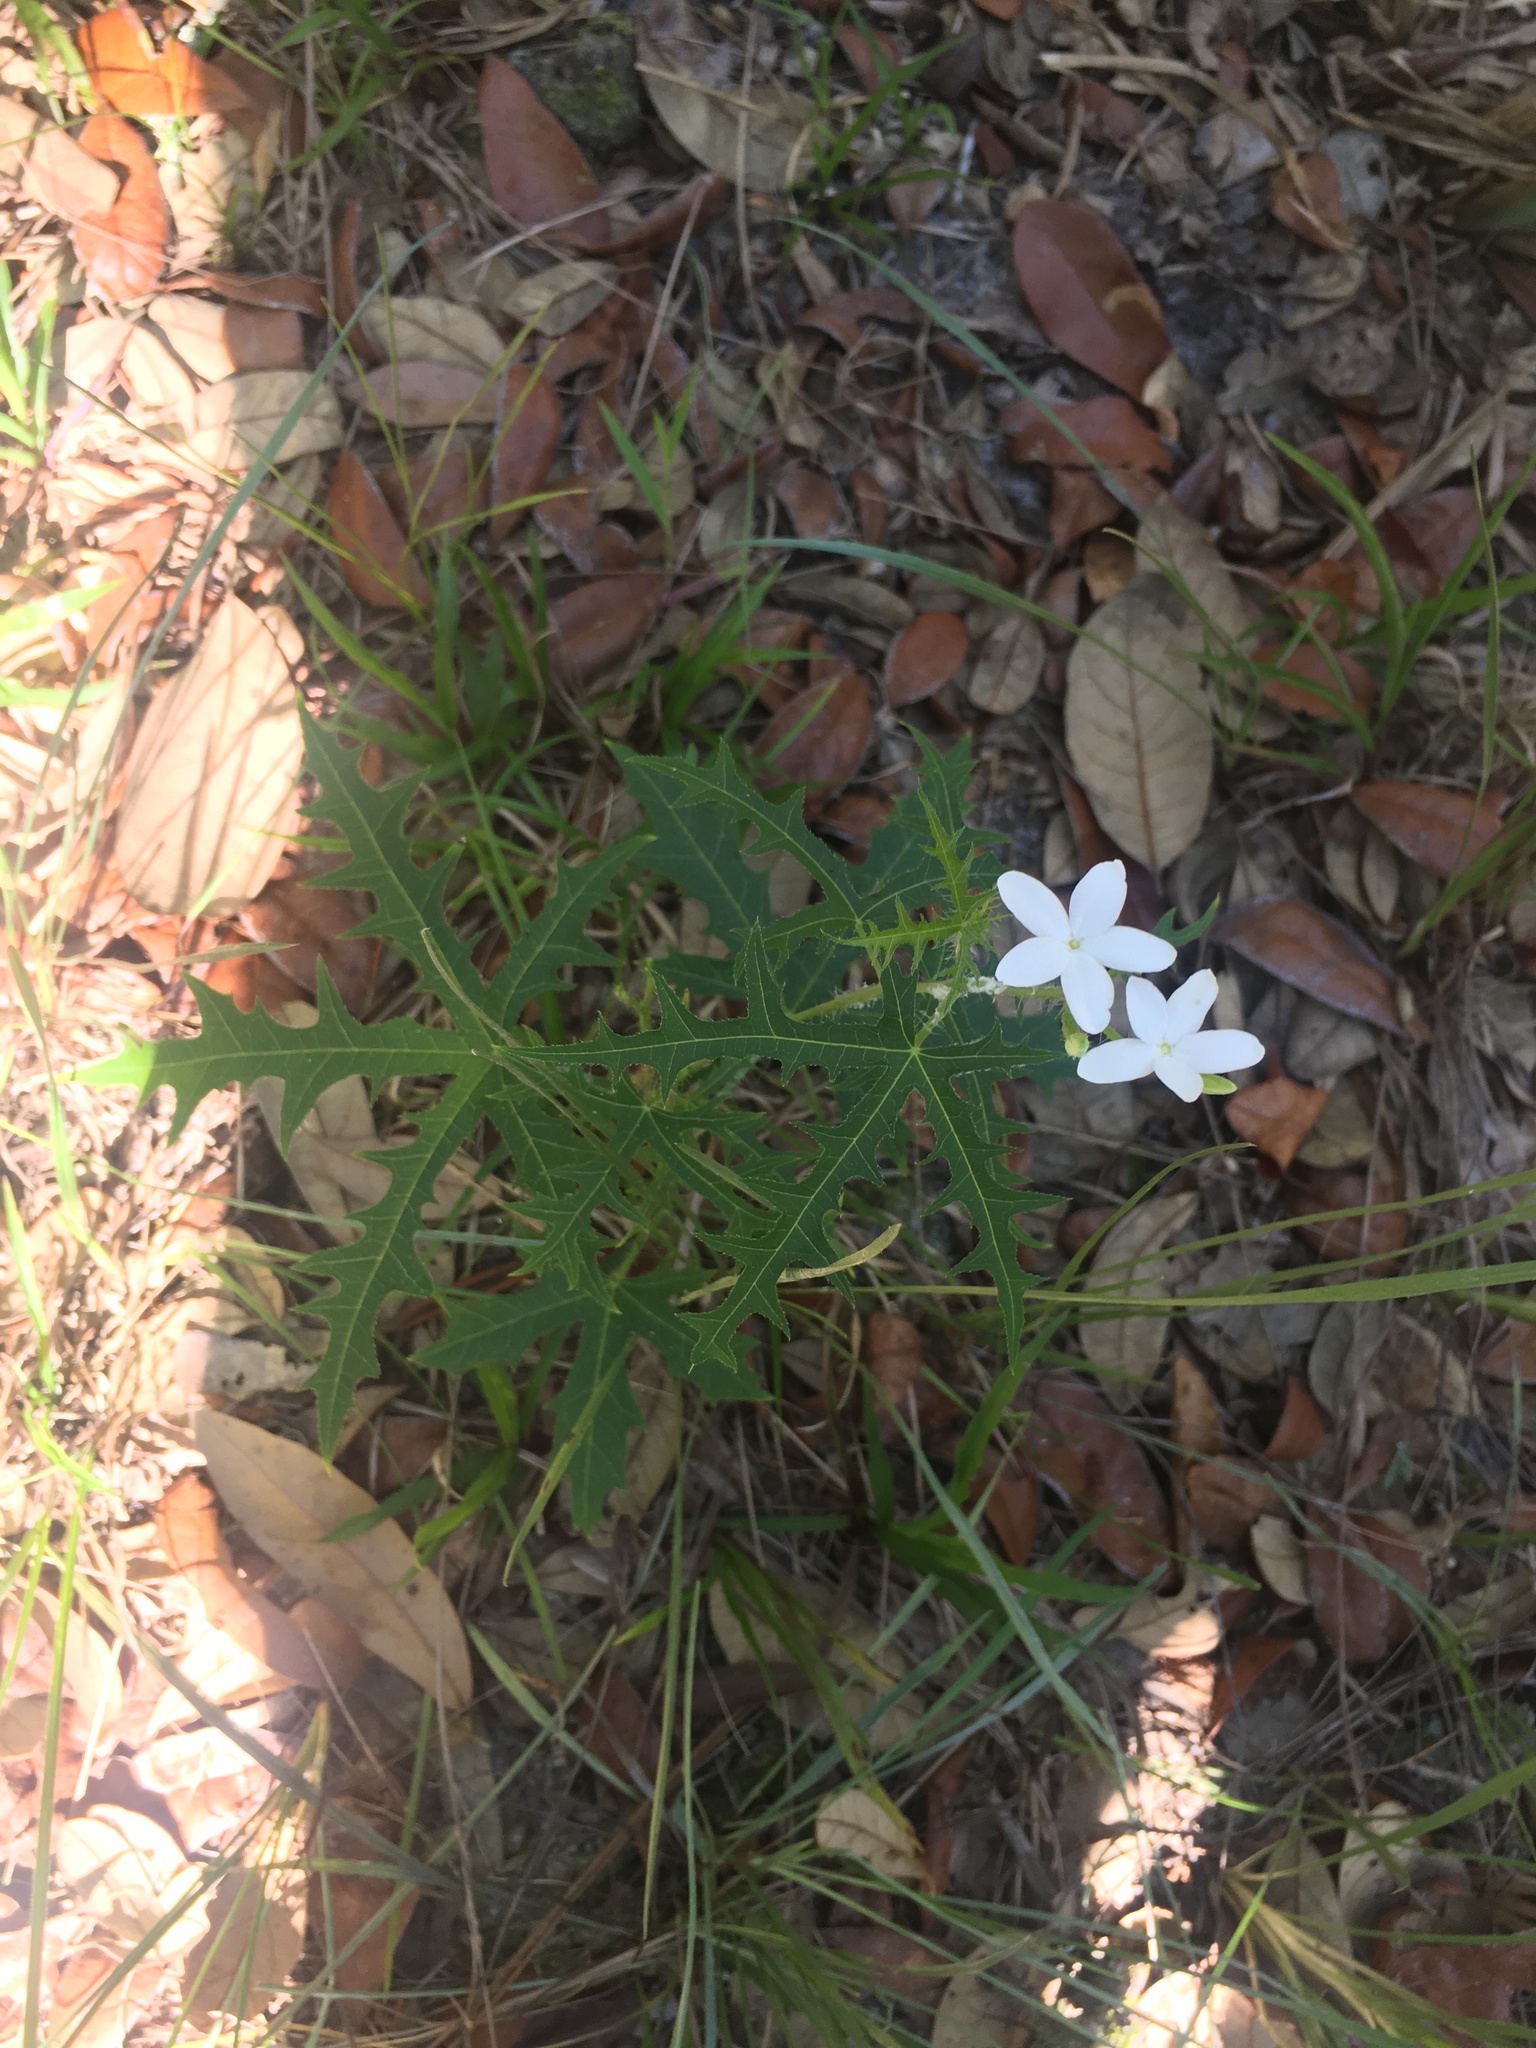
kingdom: Plantae
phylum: Tracheophyta
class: Magnoliopsida
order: Malpighiales
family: Euphorbiaceae
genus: Cnidoscolus
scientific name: Cnidoscolus stimulosus
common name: Bull-nettle
